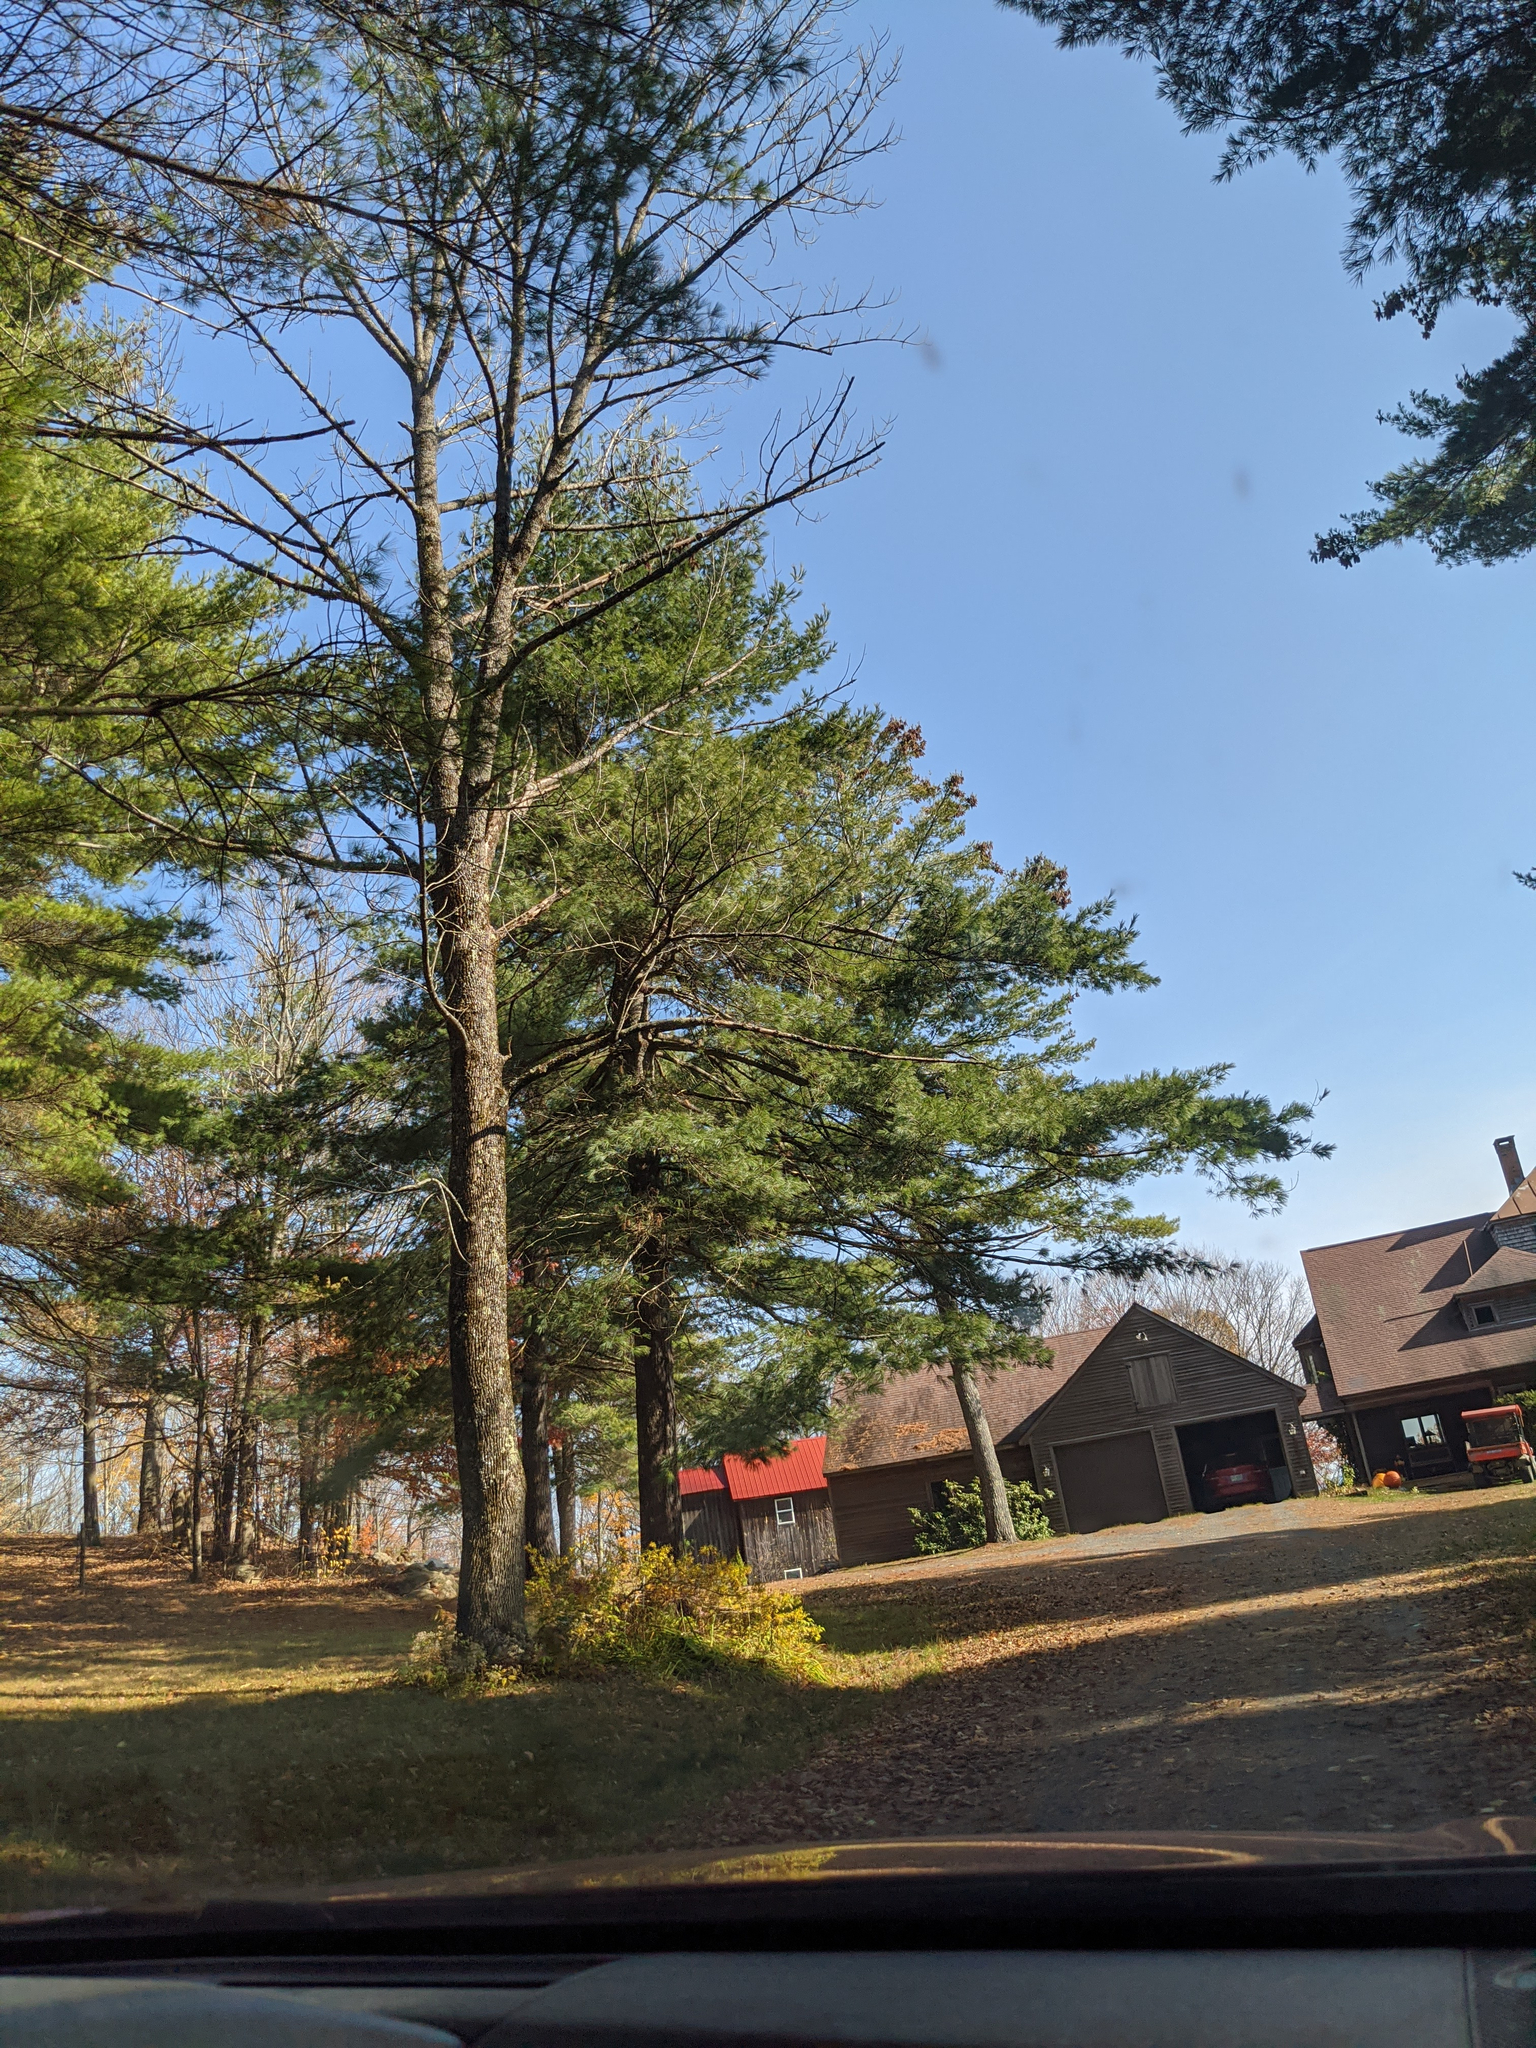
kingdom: Plantae
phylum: Tracheophyta
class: Pinopsida
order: Pinales
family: Pinaceae
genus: Pinus
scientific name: Pinus strobus
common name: Weymouth pine
